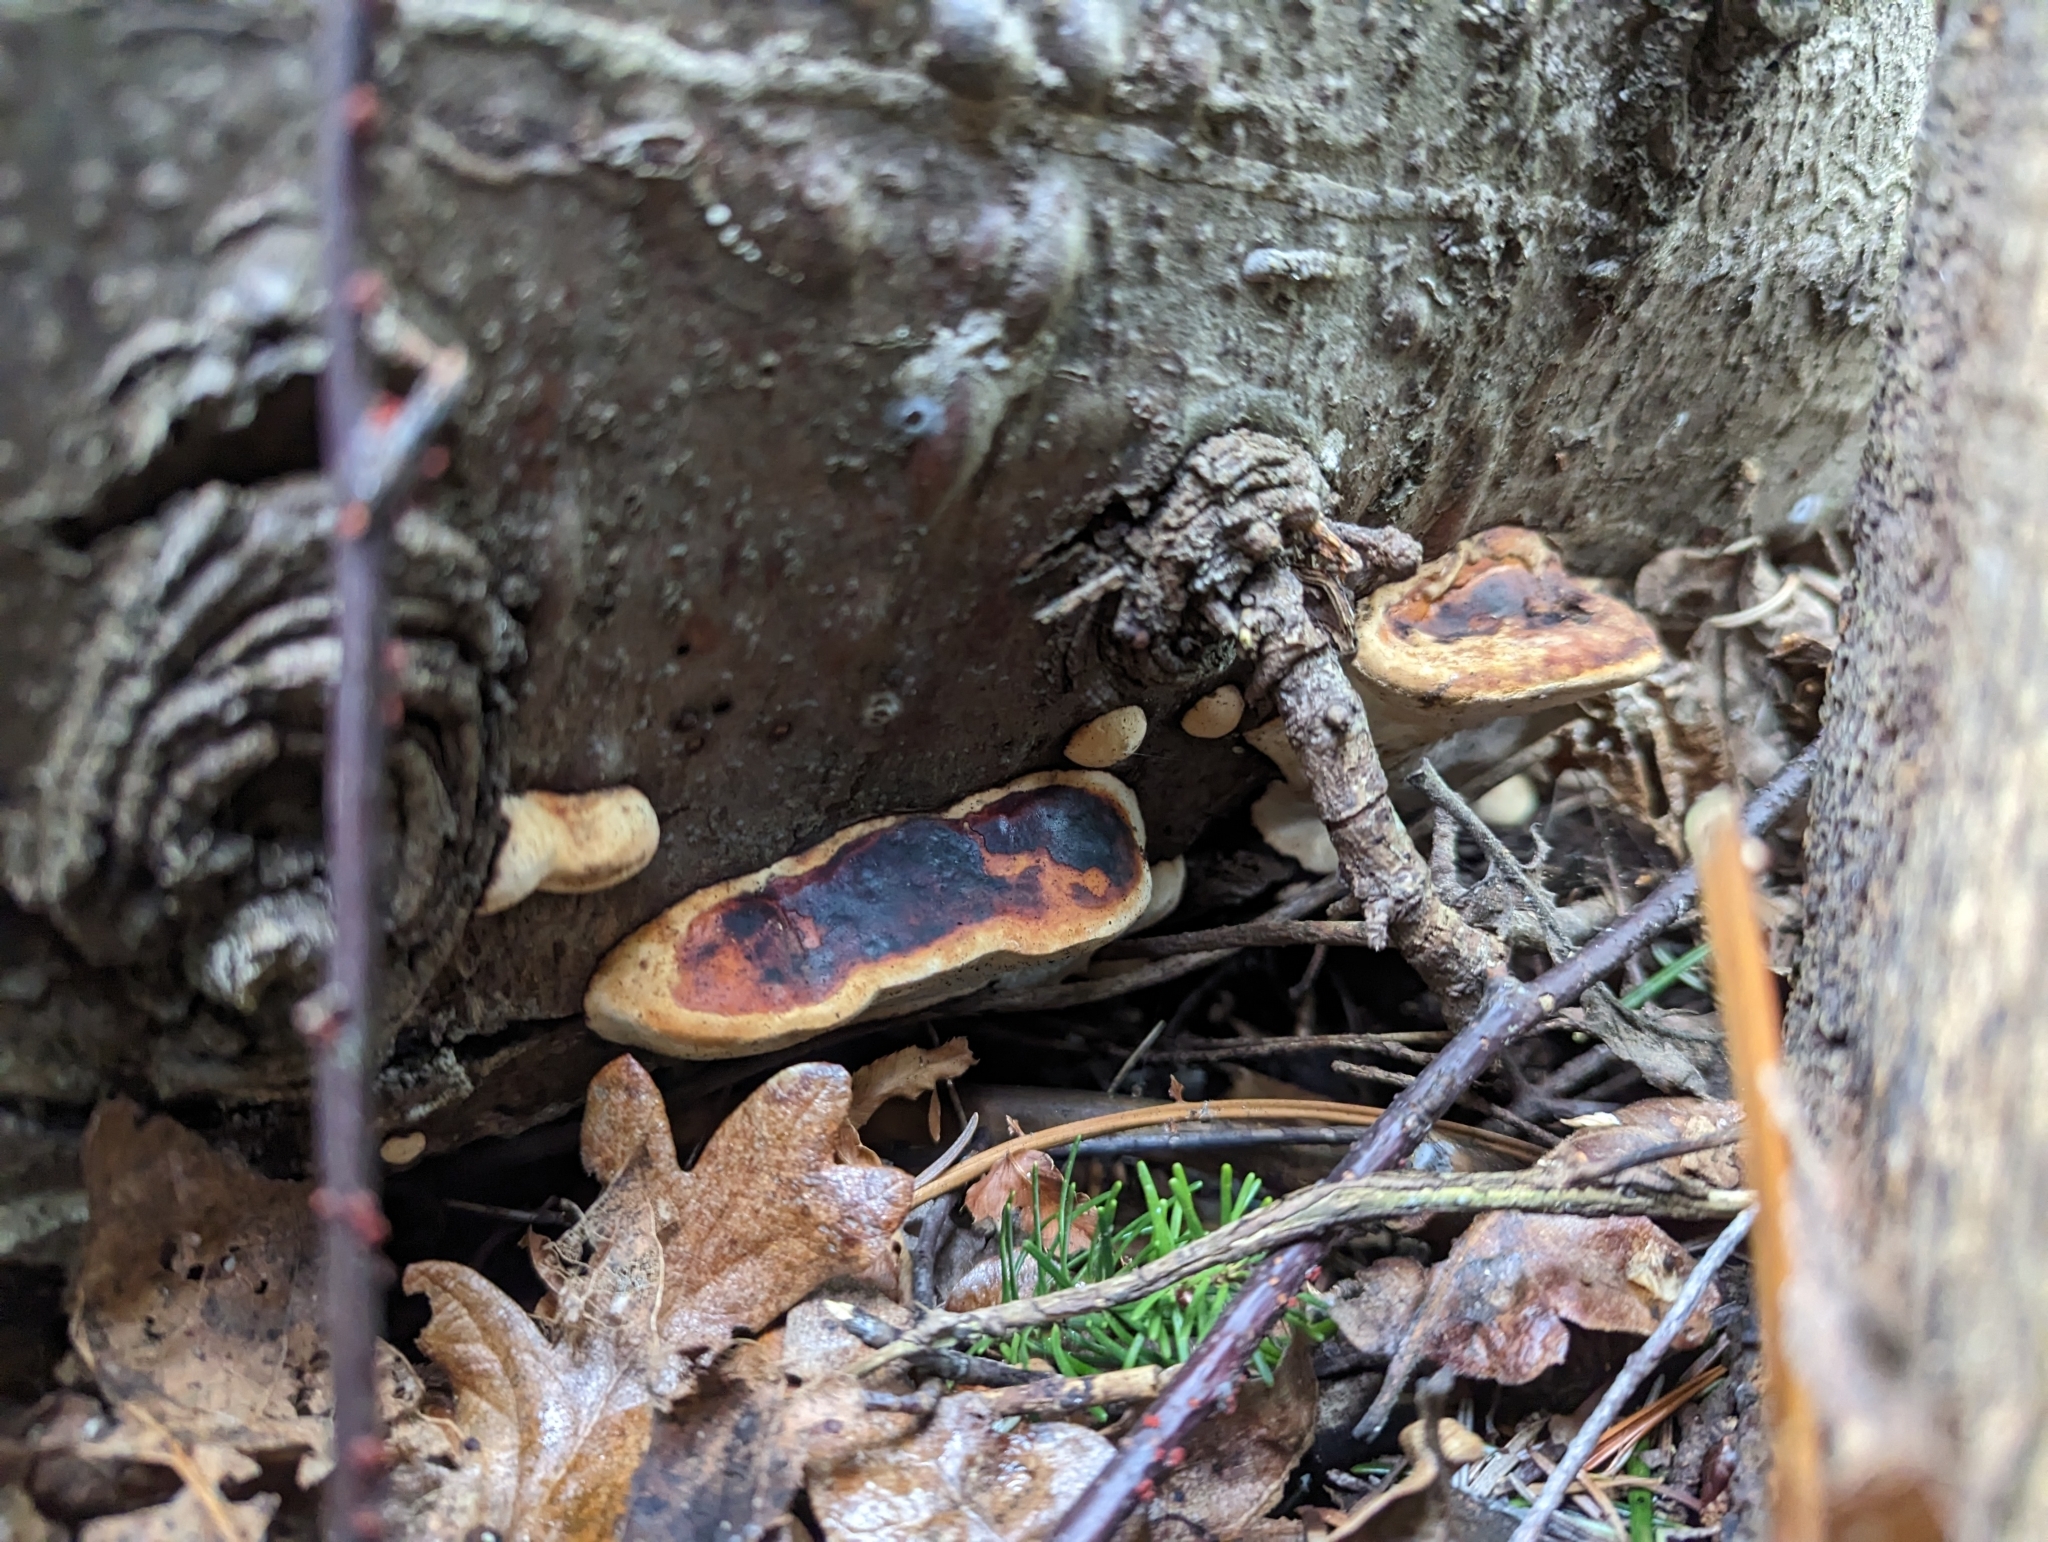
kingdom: Fungi
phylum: Basidiomycota
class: Agaricomycetes
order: Polyporales
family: Fomitopsidaceae
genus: Fomitopsis
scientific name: Fomitopsis mounceae
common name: Northern red belt
